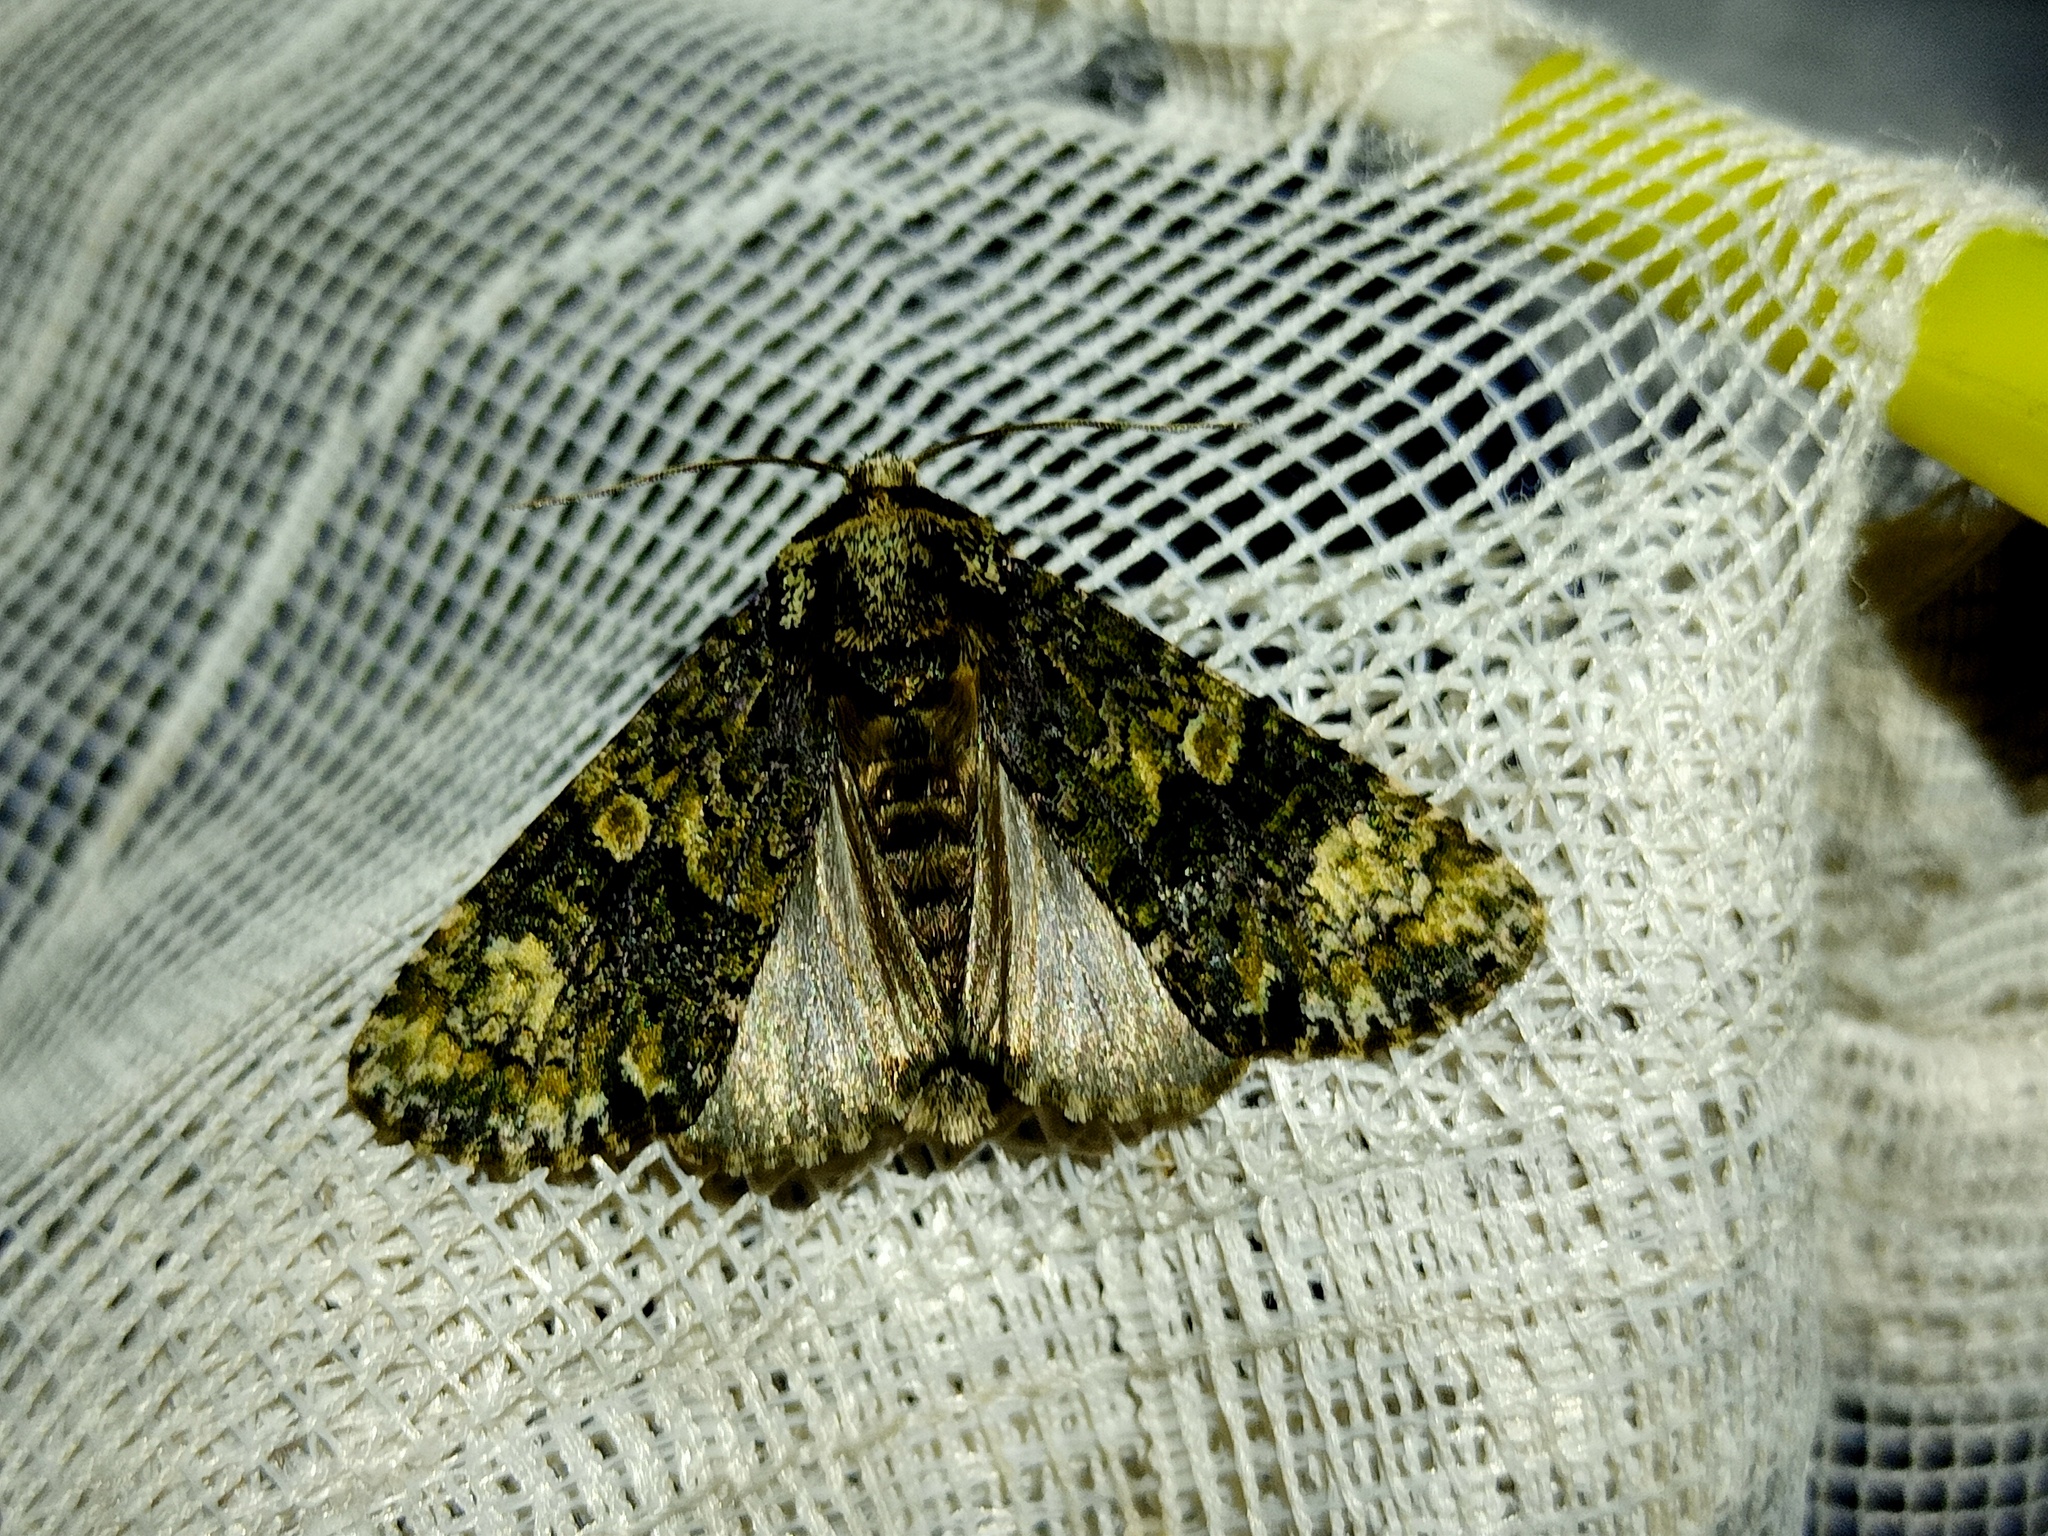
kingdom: Animalia
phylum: Arthropoda
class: Insecta
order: Lepidoptera
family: Noctuidae
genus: Craniophora
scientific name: Craniophora ligustri
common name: Coronet
